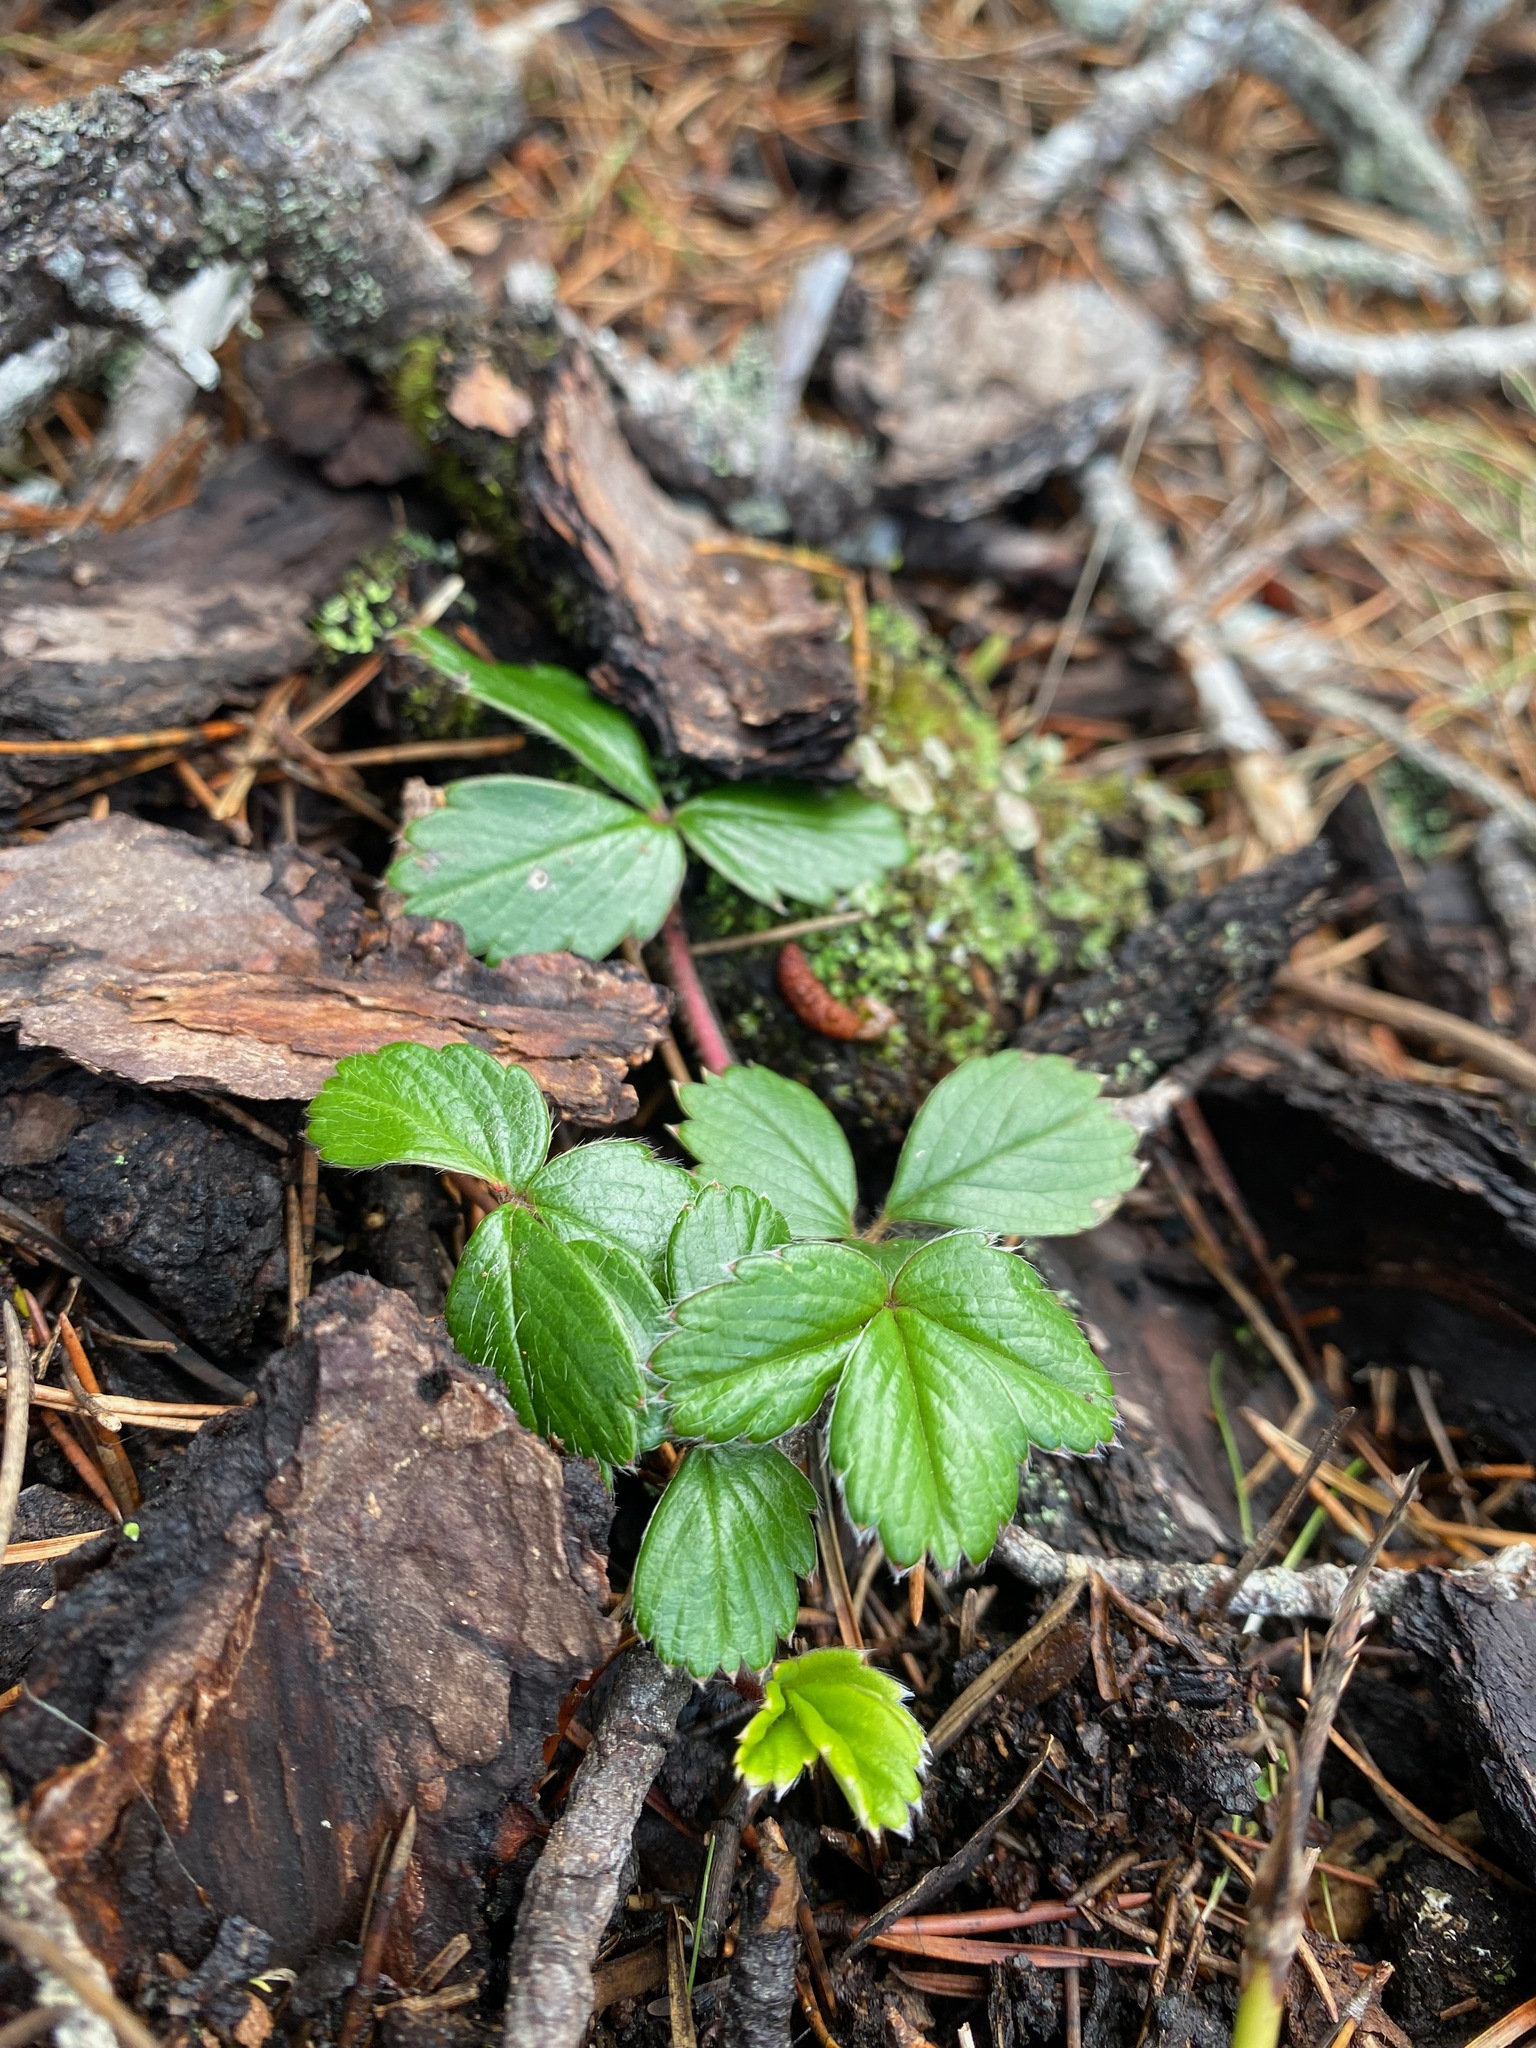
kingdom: Plantae
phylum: Tracheophyta
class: Magnoliopsida
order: Rosales
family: Rosaceae
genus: Fragaria
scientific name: Fragaria chiloensis
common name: Beach strawberry
